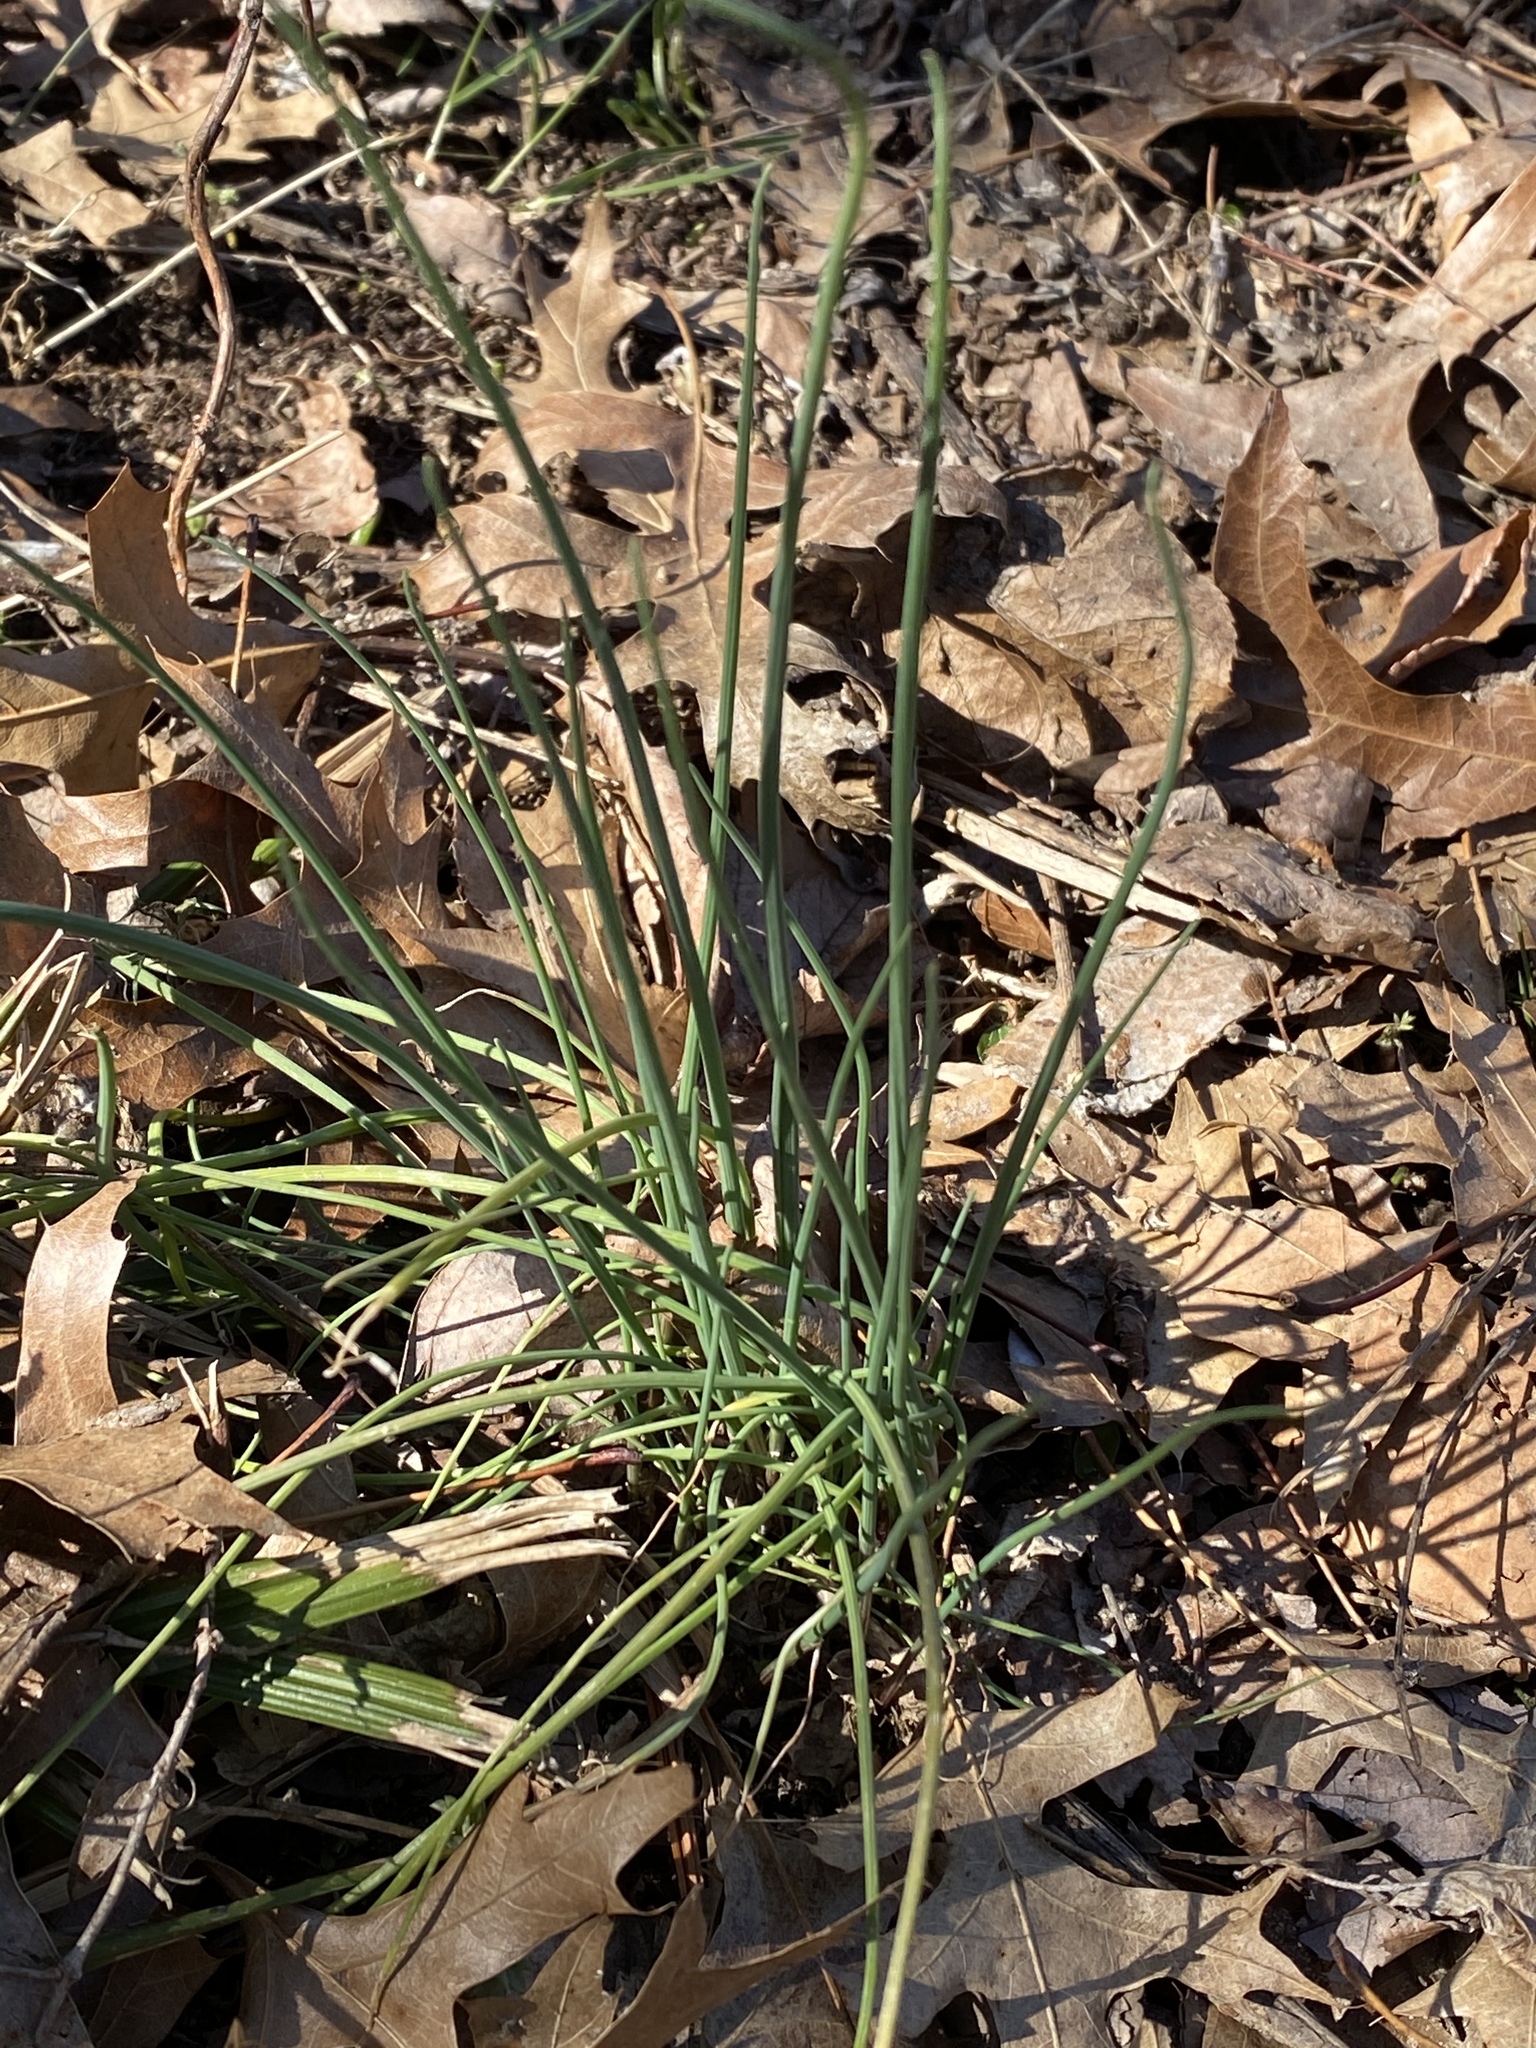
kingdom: Plantae
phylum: Tracheophyta
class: Liliopsida
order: Asparagales
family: Amaryllidaceae
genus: Allium
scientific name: Allium vineale
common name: Crow garlic
